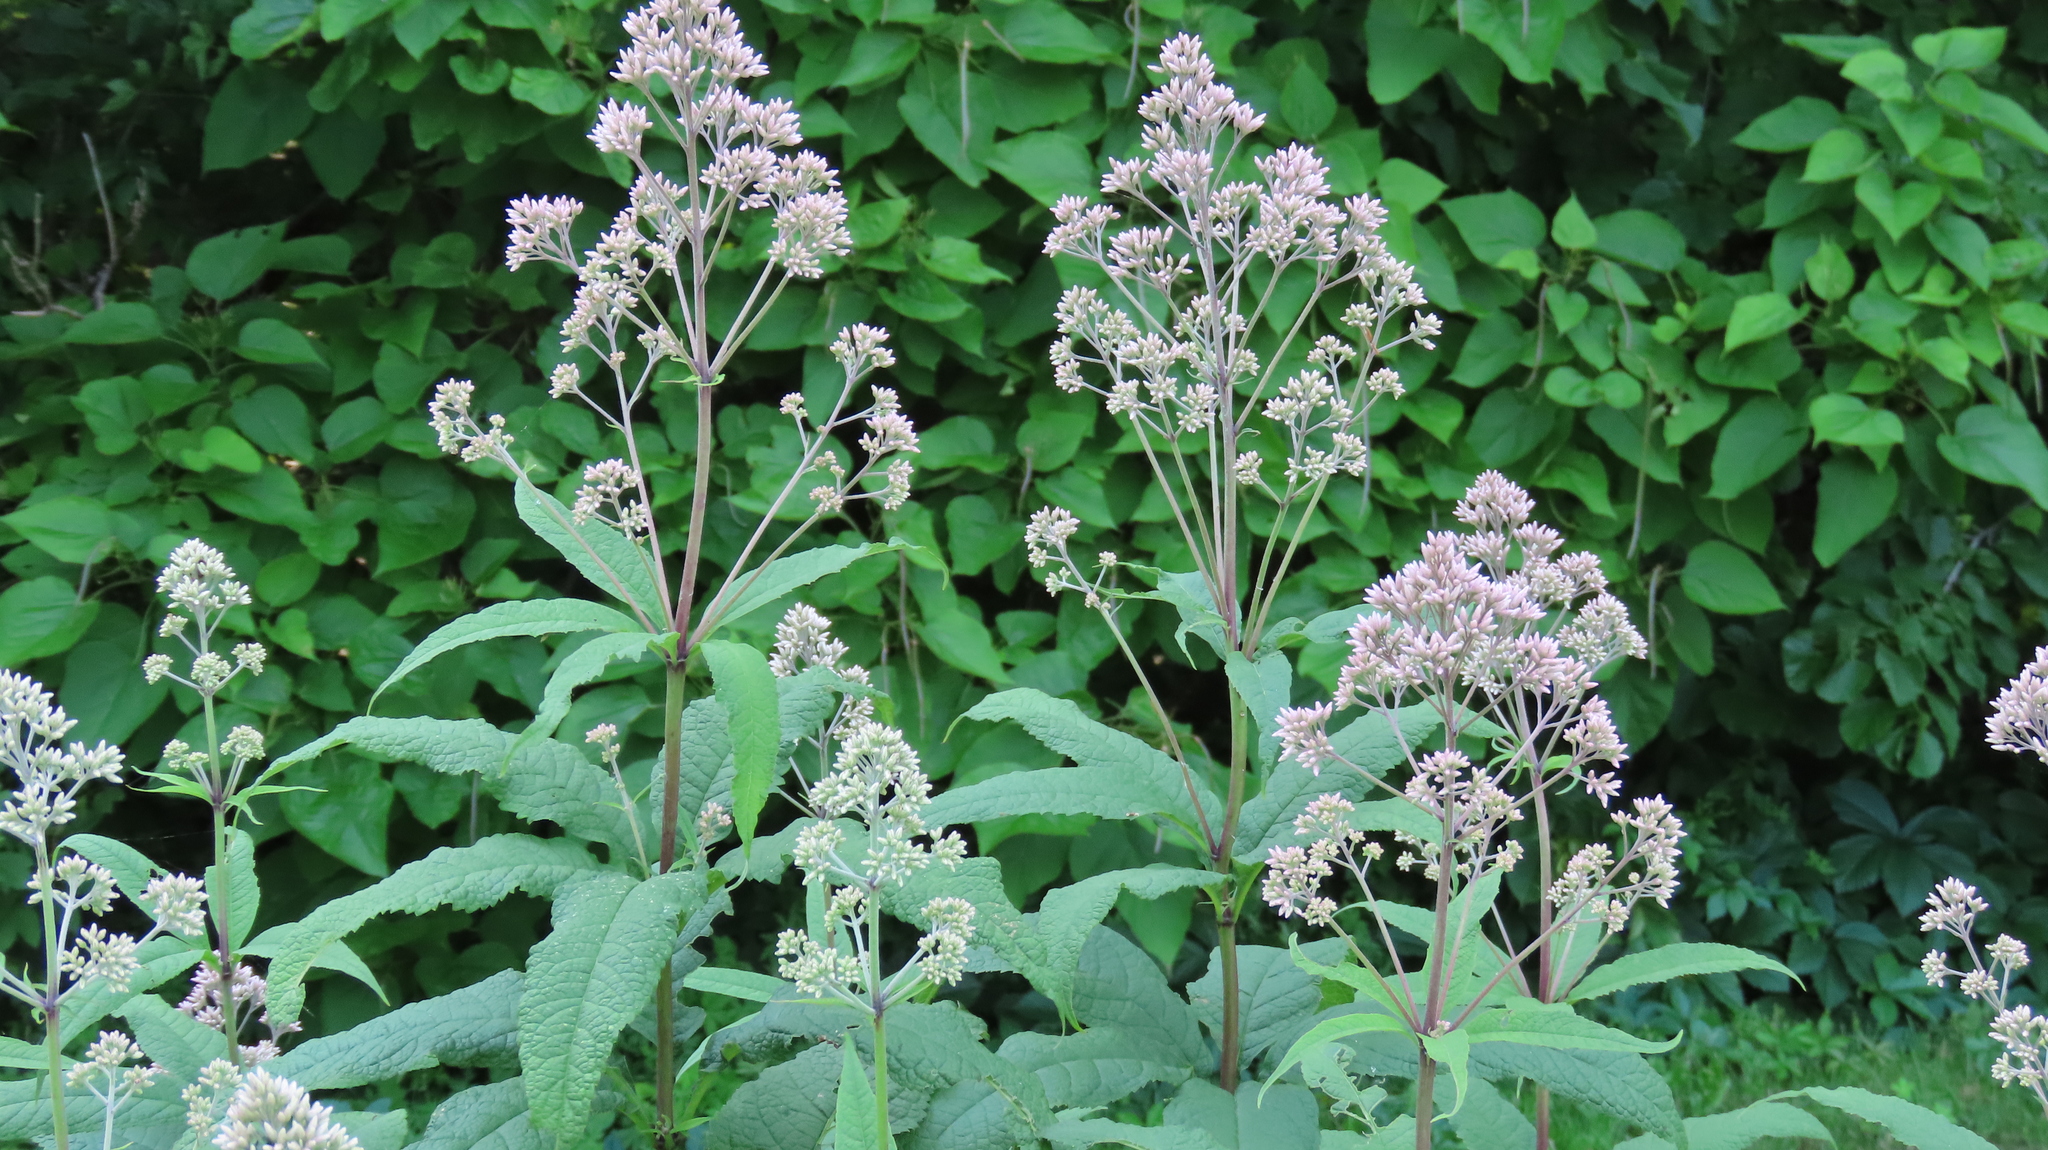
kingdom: Plantae
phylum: Tracheophyta
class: Magnoliopsida
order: Asterales
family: Asteraceae
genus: Eutrochium
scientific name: Eutrochium purpureum
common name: Gravelroot
